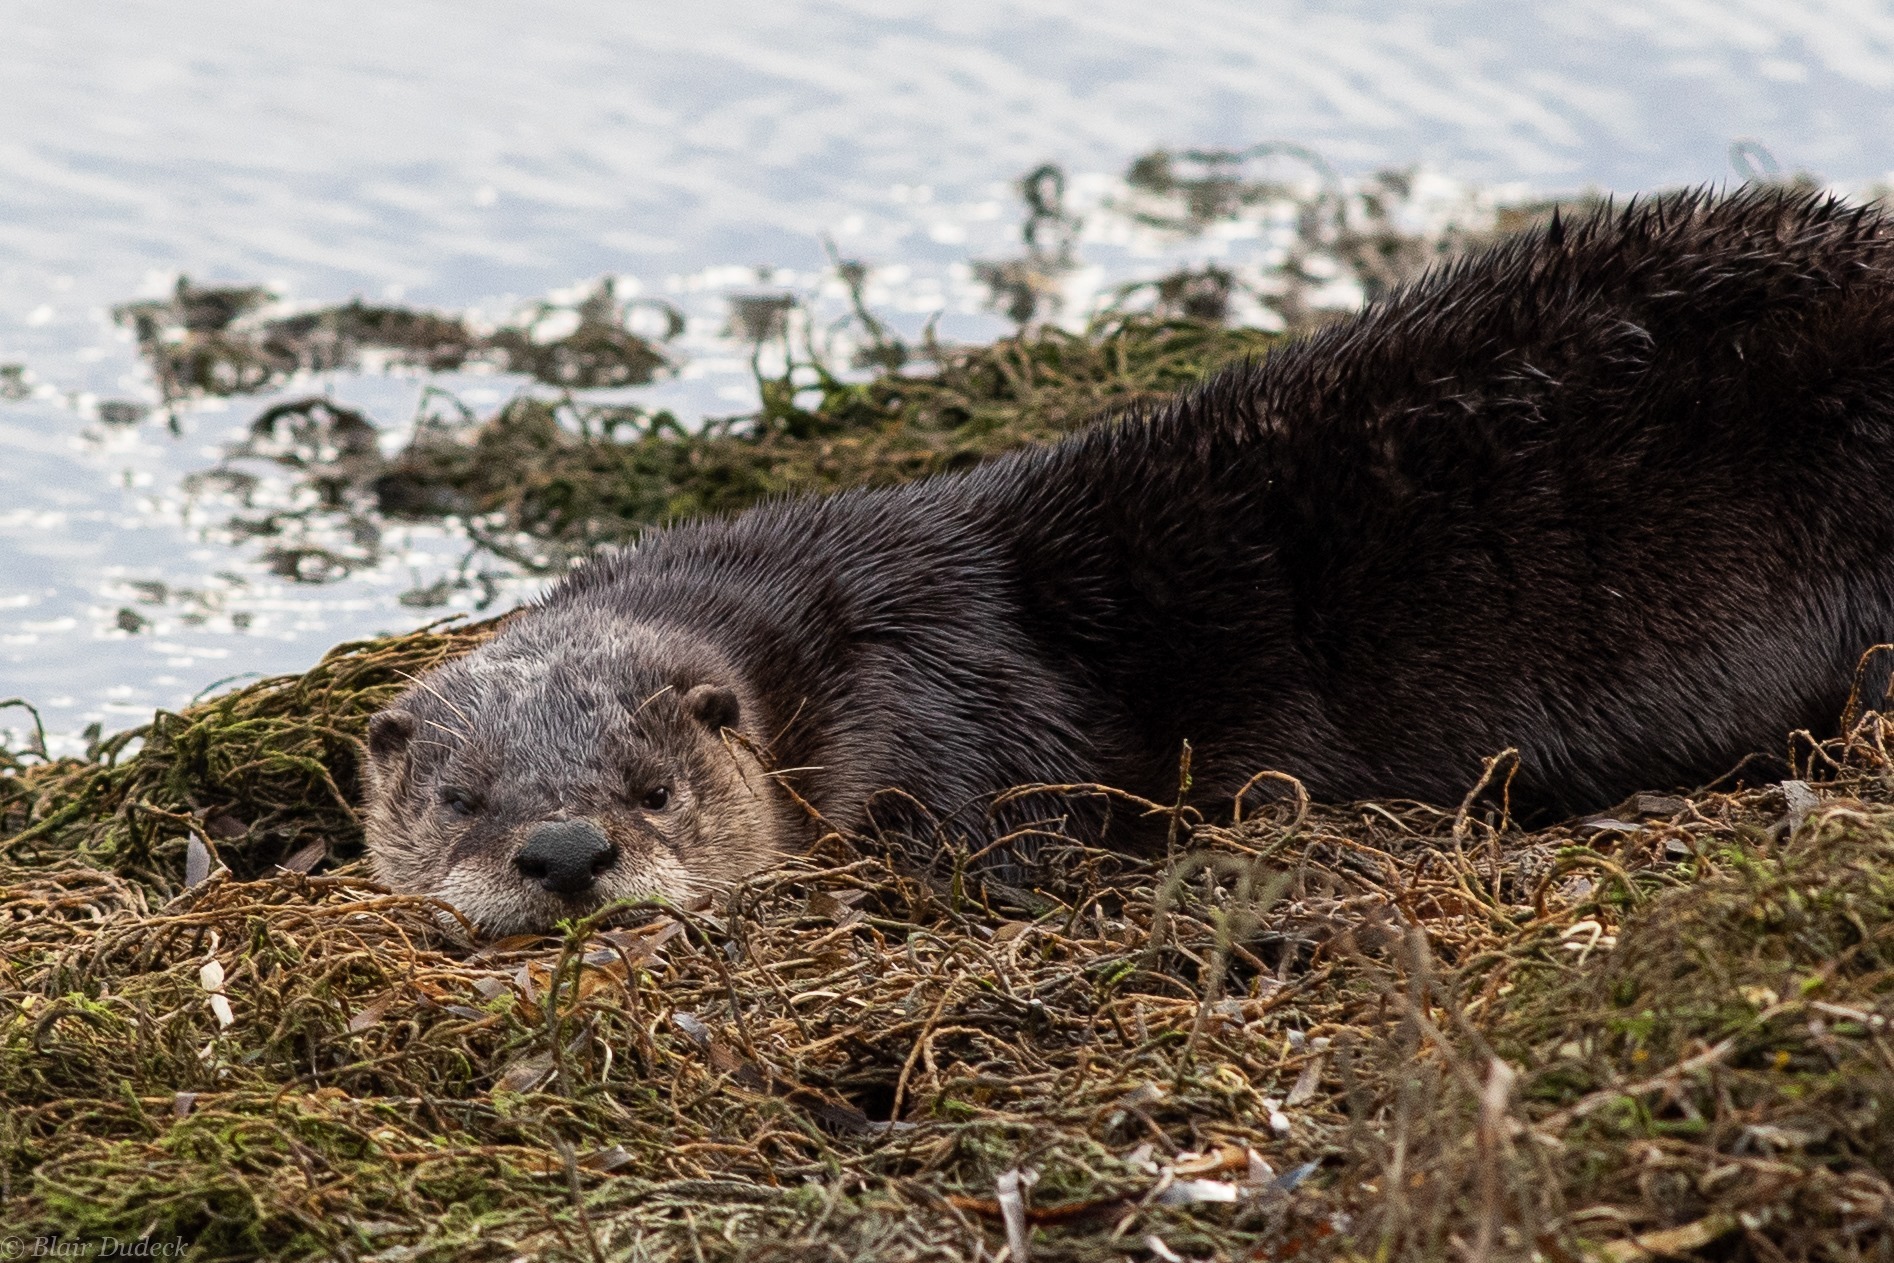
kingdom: Animalia
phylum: Chordata
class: Mammalia
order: Carnivora
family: Mustelidae
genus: Lontra
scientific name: Lontra canadensis
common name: North american river otter
